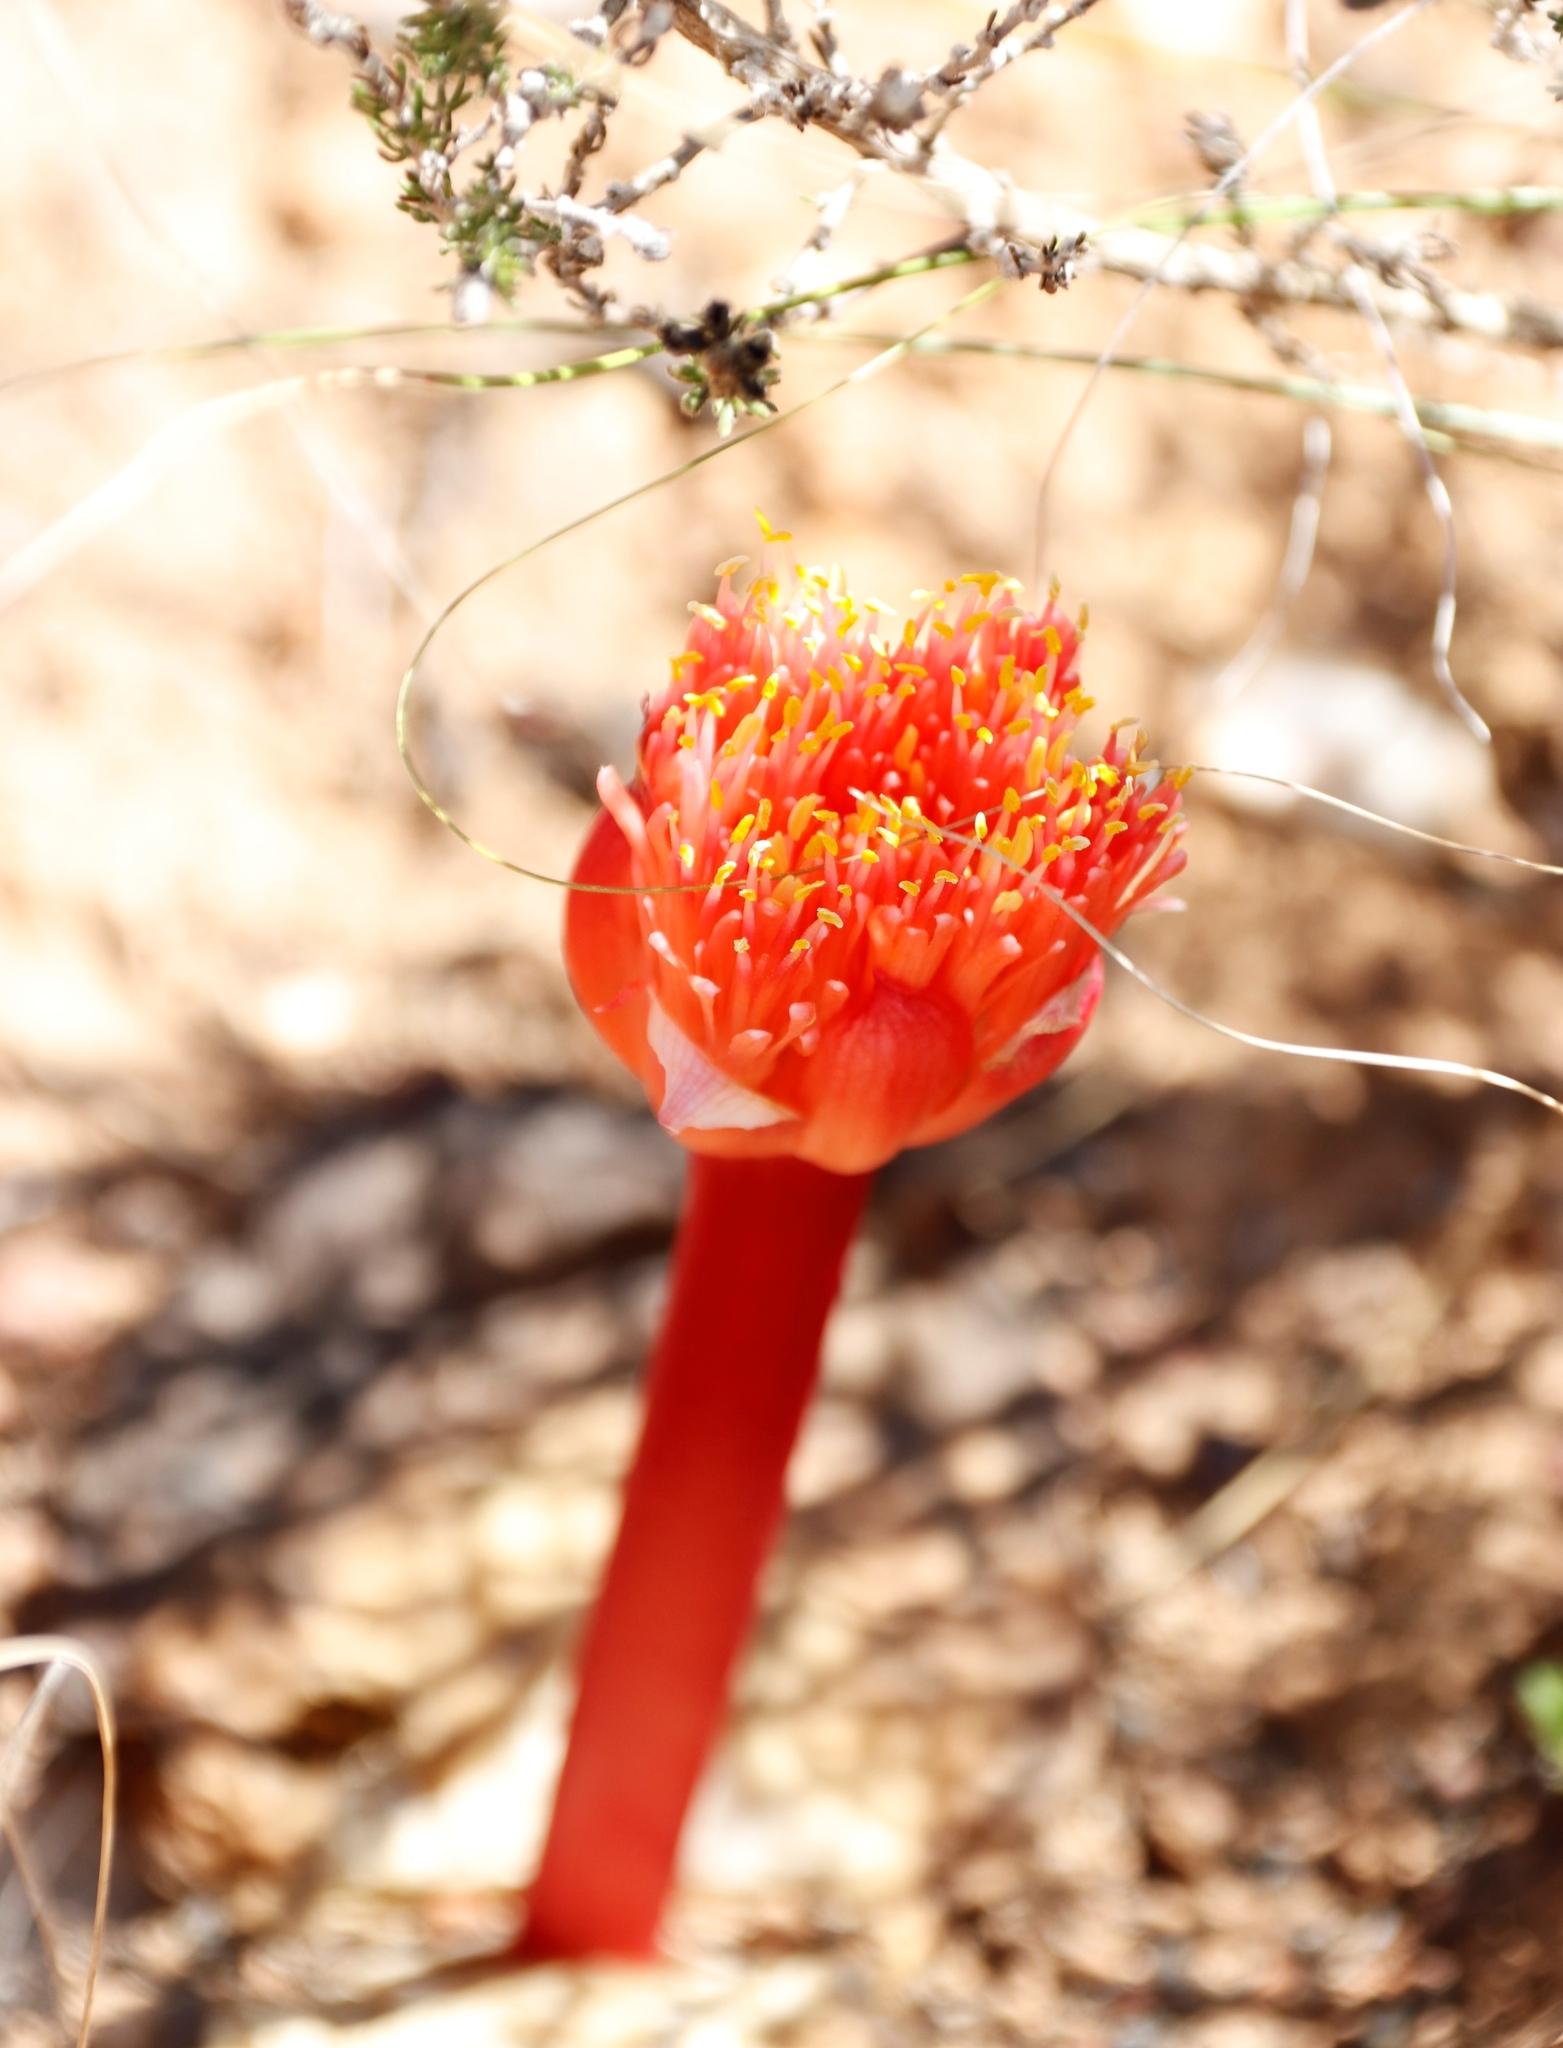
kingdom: Plantae
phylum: Tracheophyta
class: Liliopsida
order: Asparagales
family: Amaryllidaceae
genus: Haemanthus
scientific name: Haemanthus sanguineus
